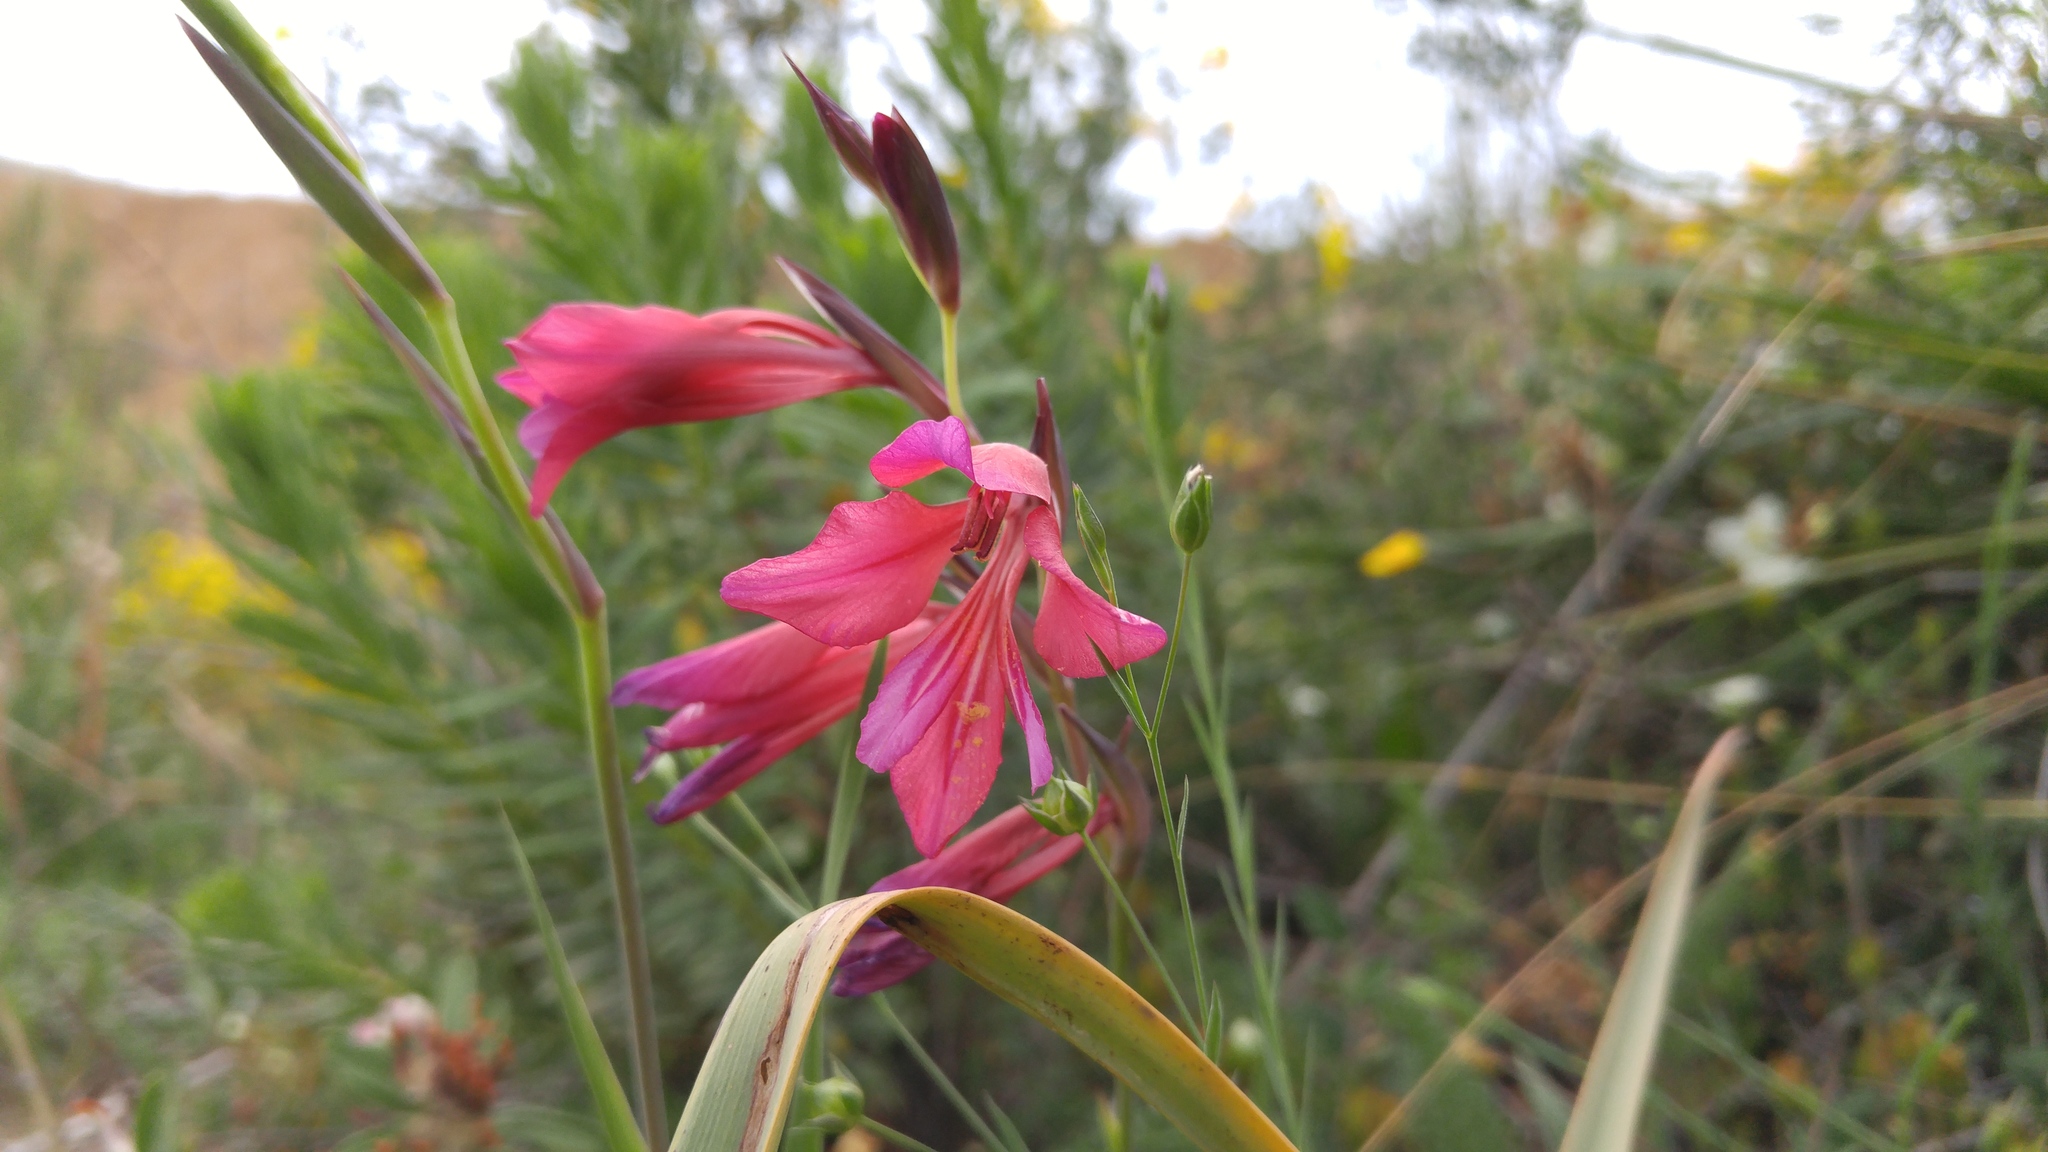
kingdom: Plantae
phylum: Tracheophyta
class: Liliopsida
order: Asparagales
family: Iridaceae
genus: Gladiolus
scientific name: Gladiolus dubius
